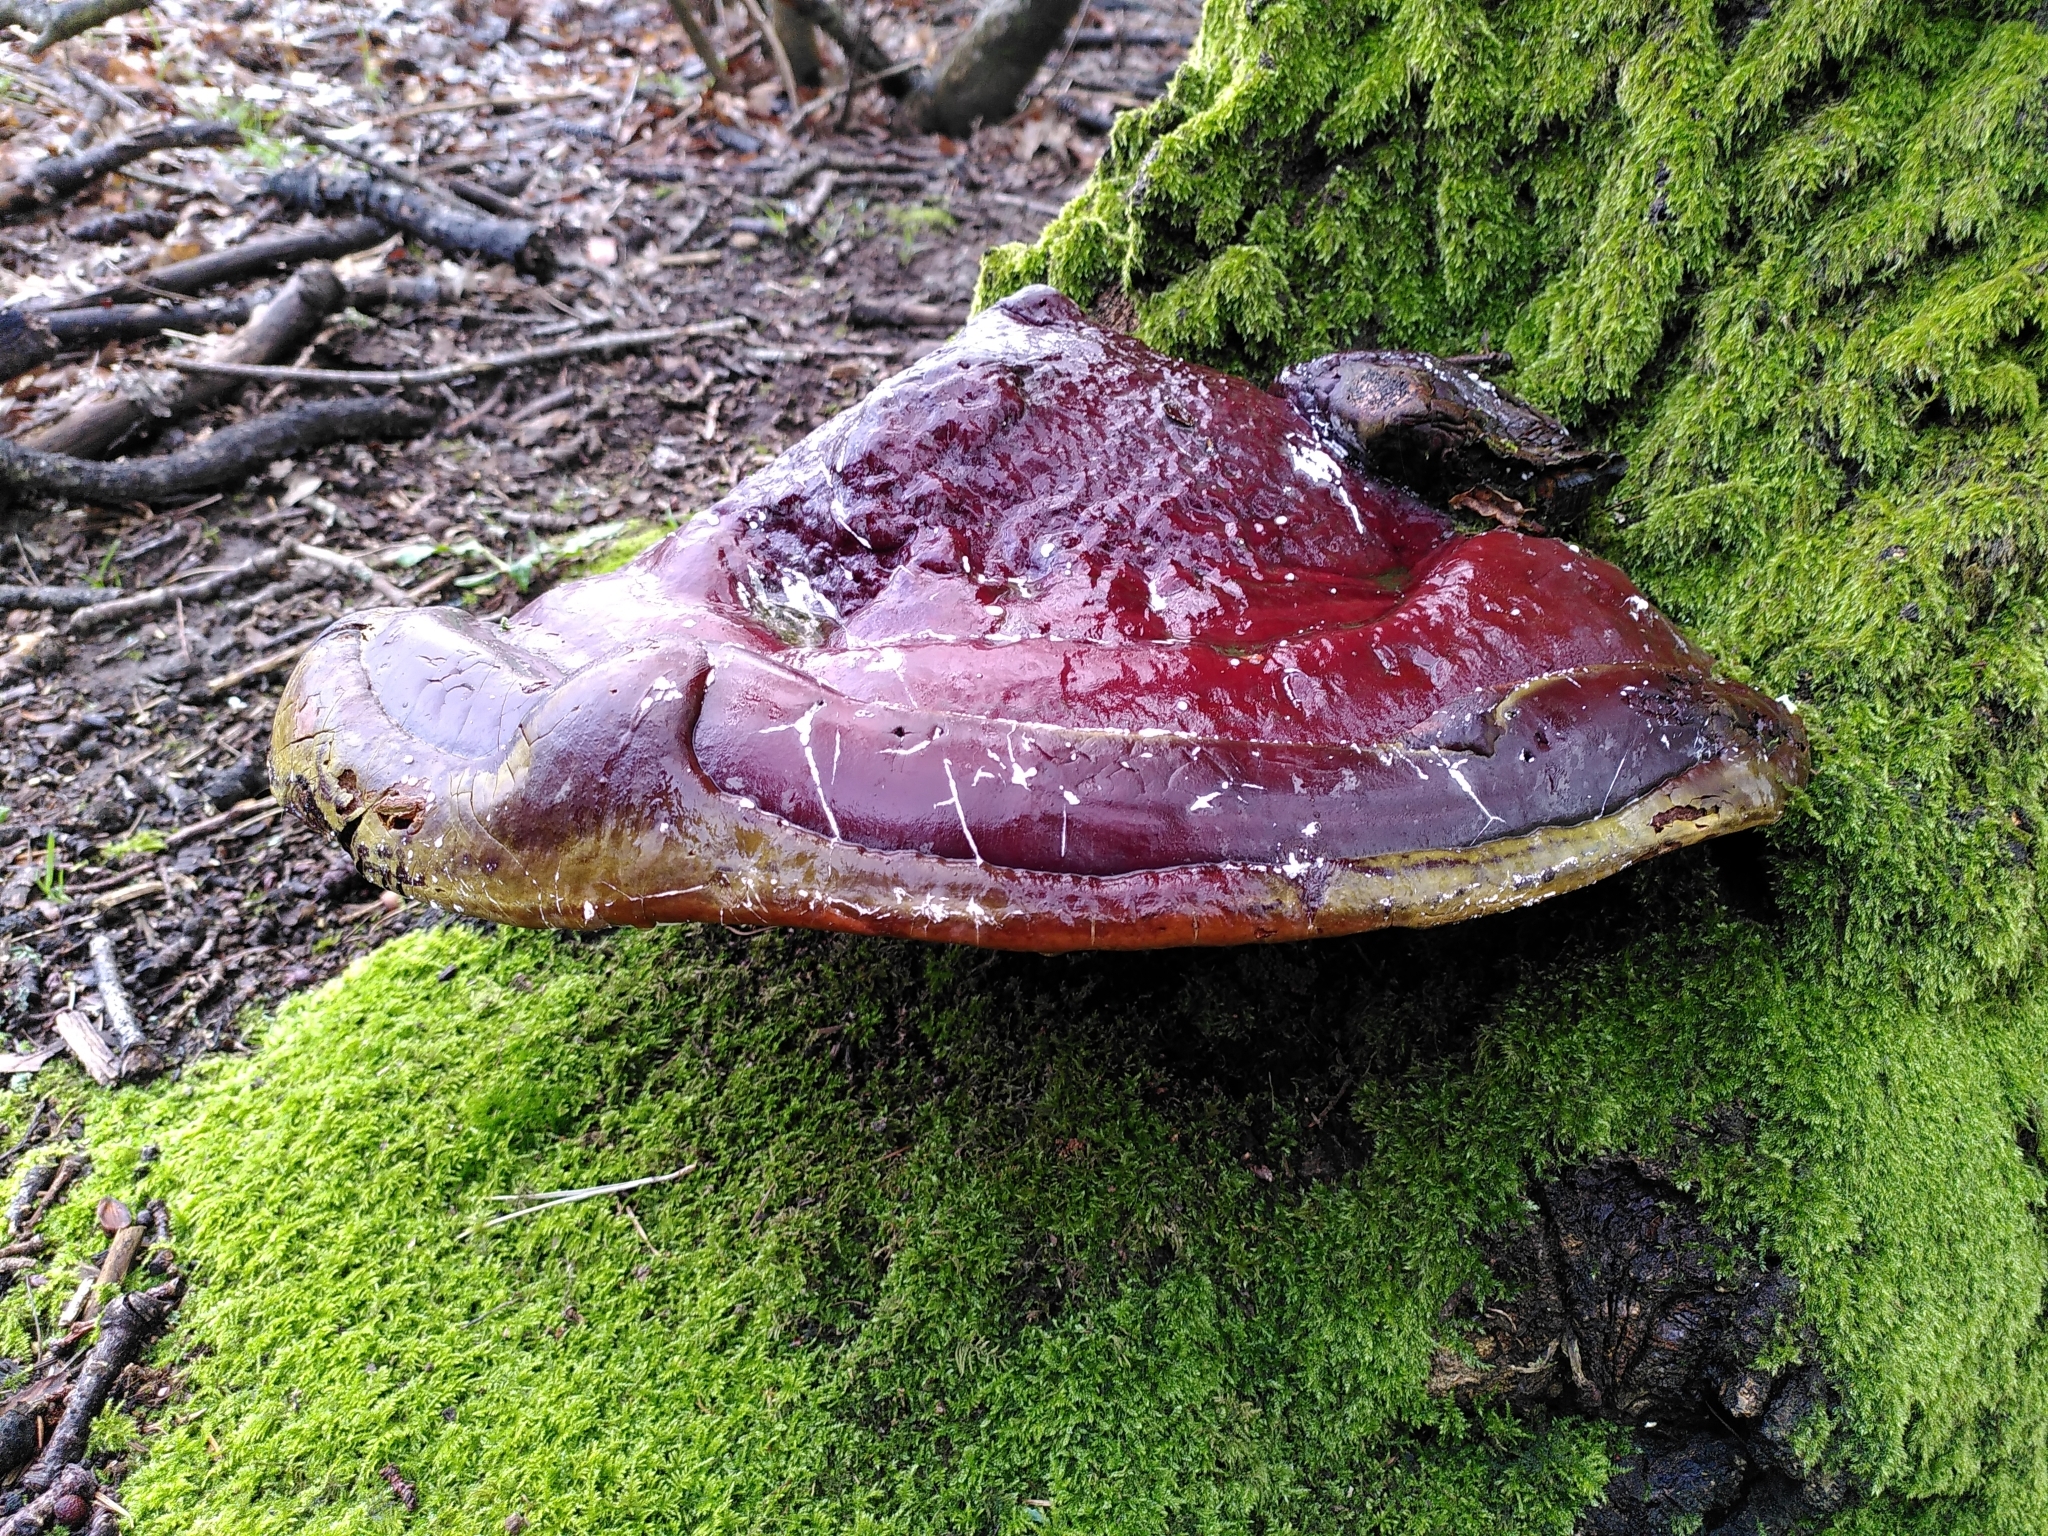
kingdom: Fungi
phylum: Basidiomycota
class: Agaricomycetes
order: Polyporales
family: Polyporaceae
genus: Ganoderma
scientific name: Ganoderma lucidum
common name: Lacquered bracket
